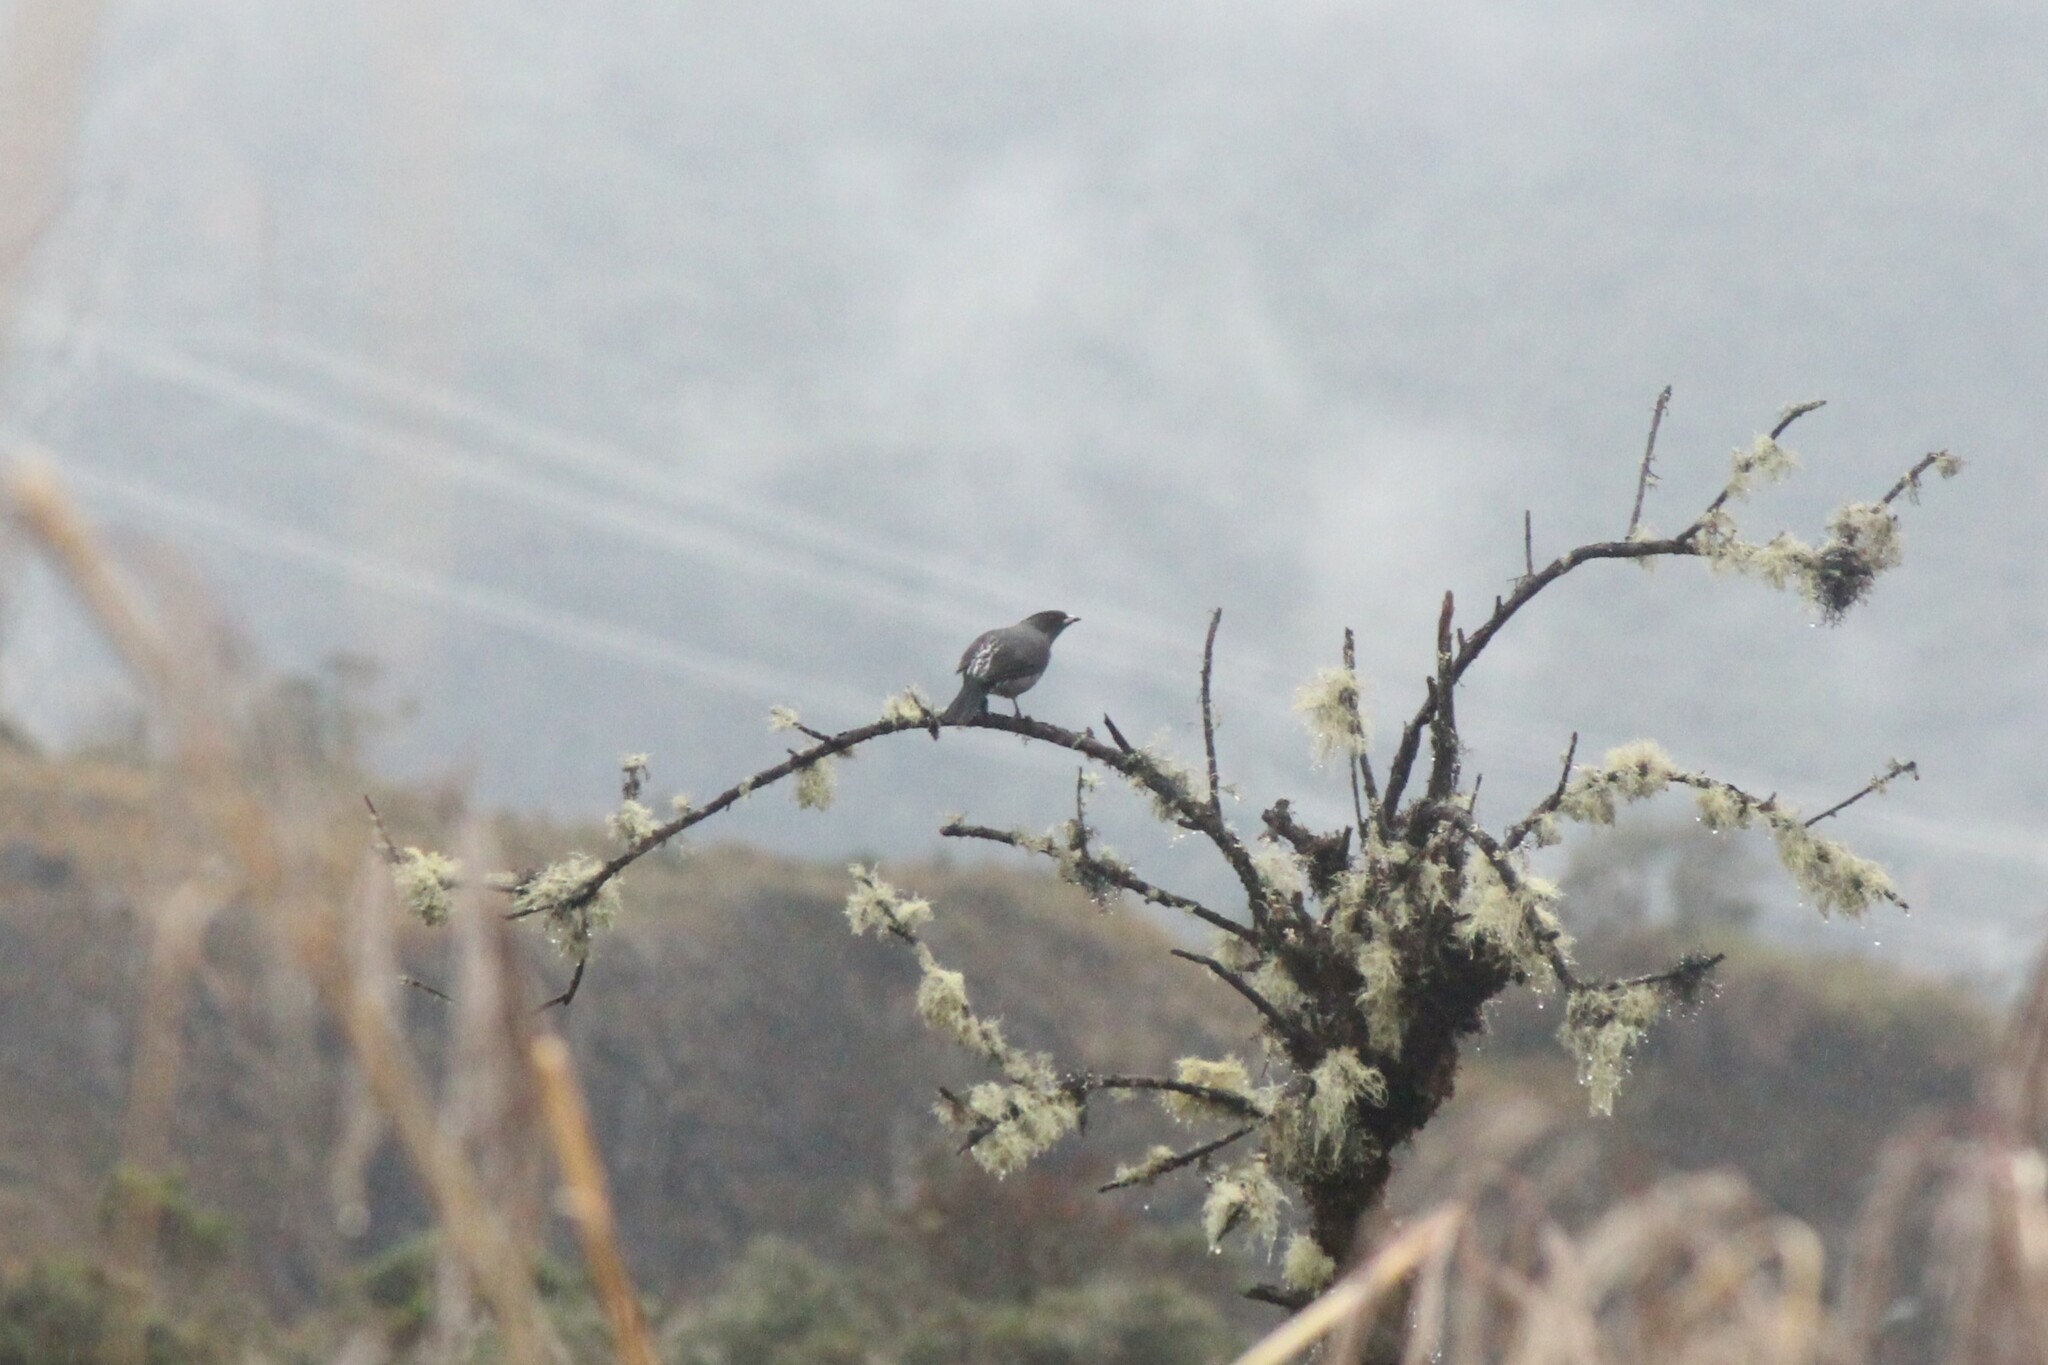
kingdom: Animalia
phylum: Chordata
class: Aves
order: Passeriformes
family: Cotingidae
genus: Ampelion
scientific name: Ampelion rubrocristatus
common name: Red-crested cotinga
